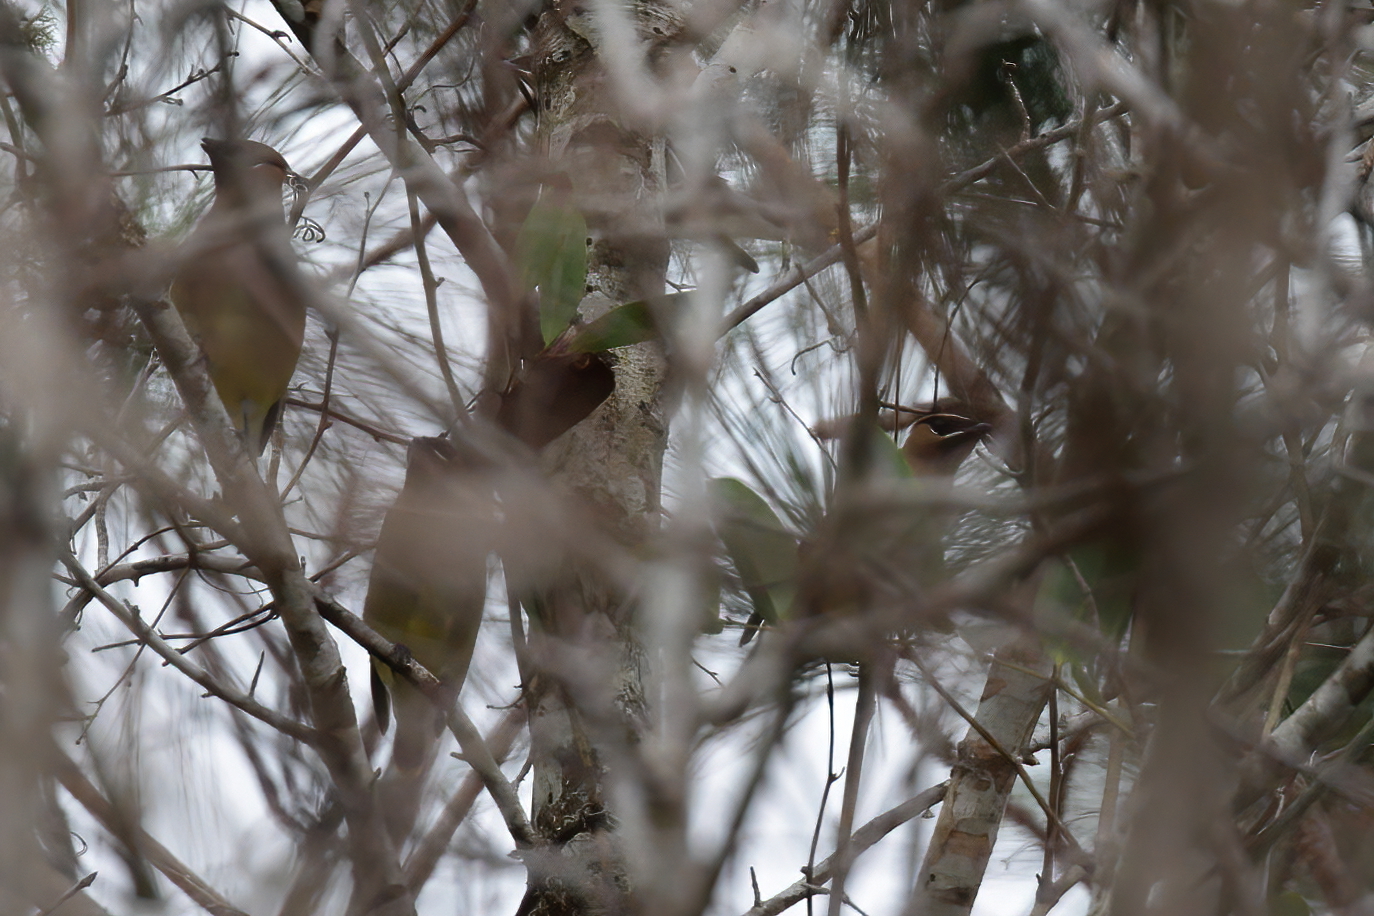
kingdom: Animalia
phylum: Chordata
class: Aves
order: Passeriformes
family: Bombycillidae
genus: Bombycilla
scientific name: Bombycilla cedrorum
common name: Cedar waxwing
